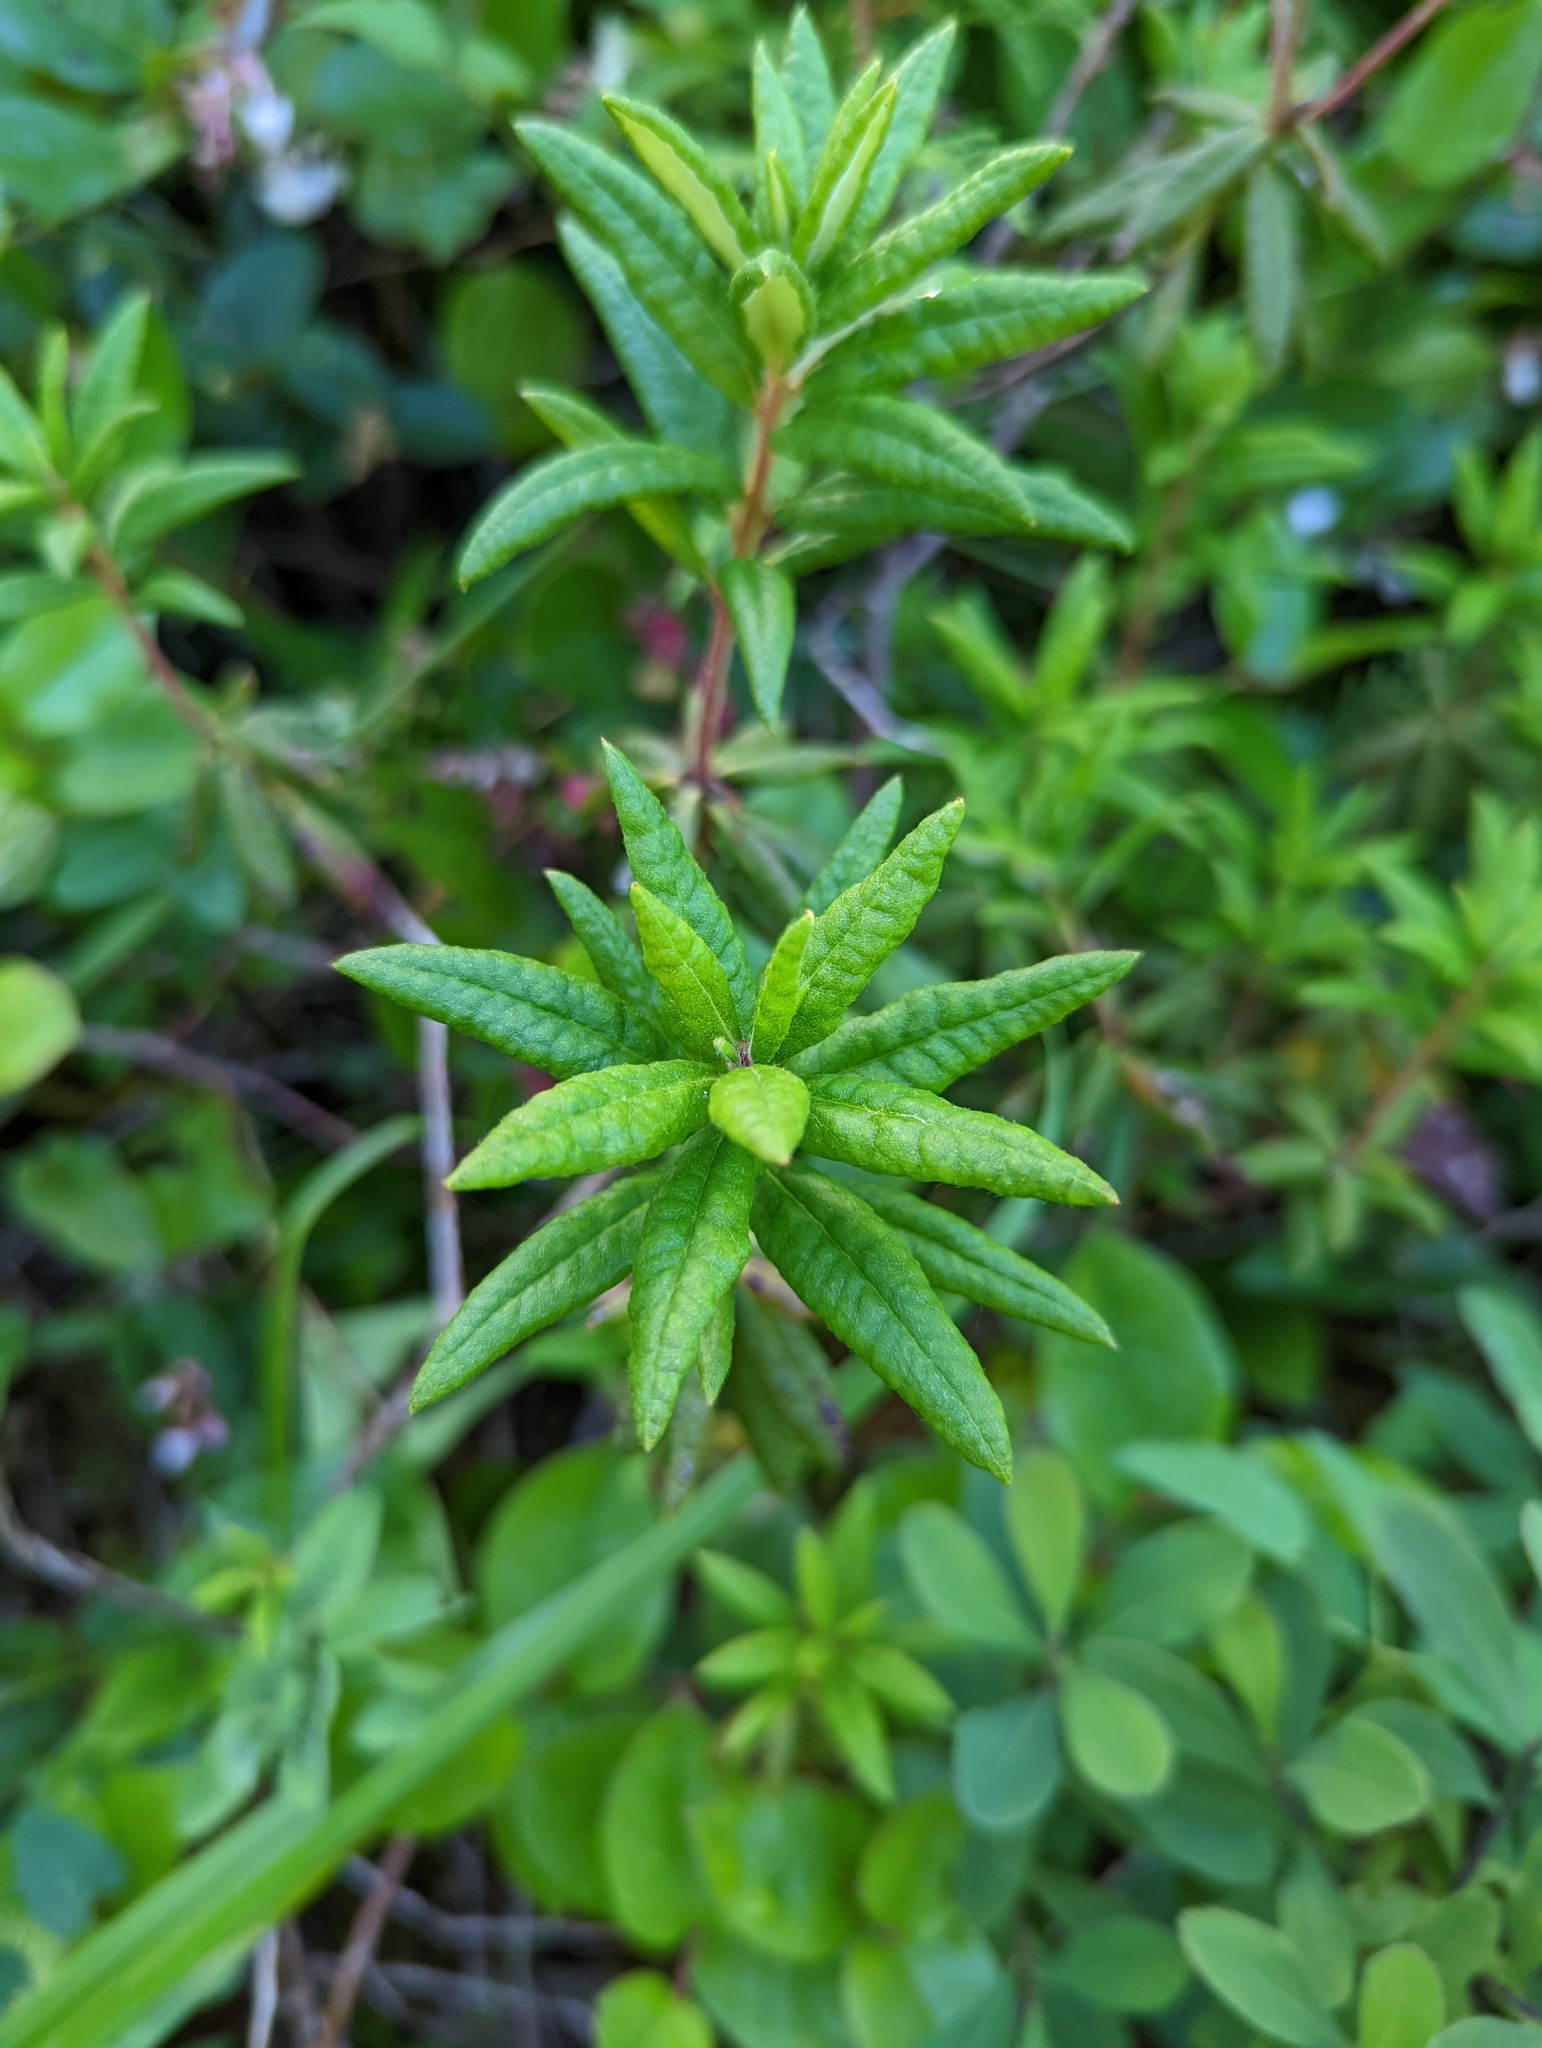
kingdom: Plantae
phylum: Tracheophyta
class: Magnoliopsida
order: Ericales
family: Ericaceae
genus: Rhododendron
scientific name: Rhododendron groenlandicum
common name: Bog labrador tea
